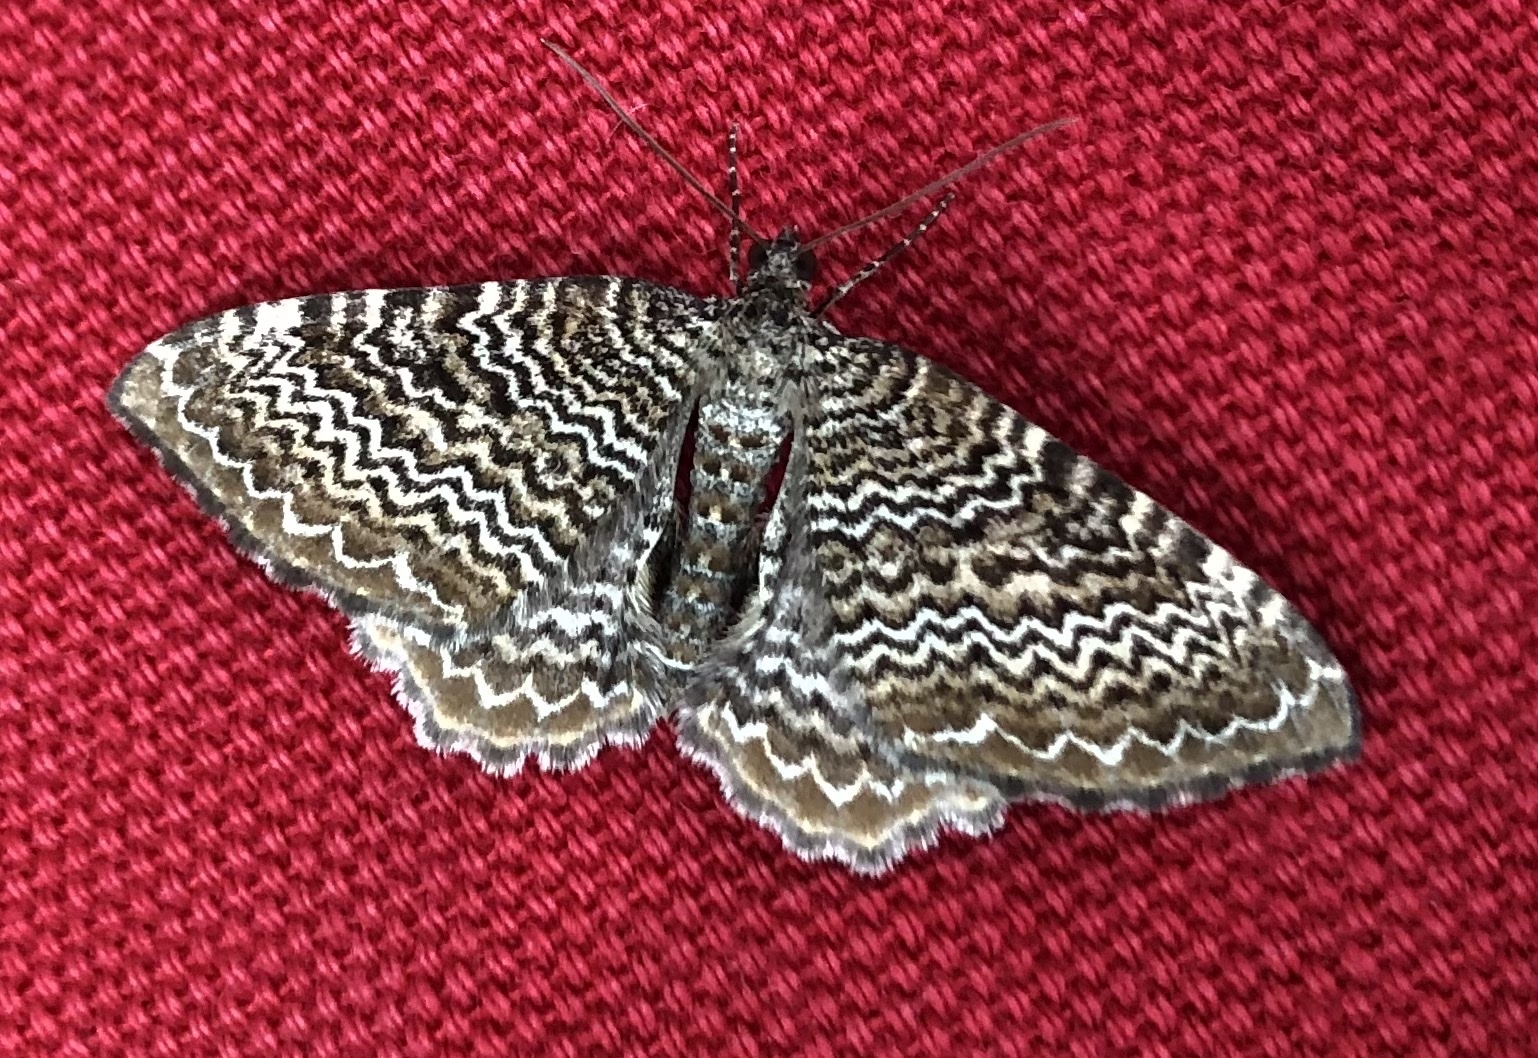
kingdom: Animalia
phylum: Arthropoda
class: Insecta
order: Lepidoptera
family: Geometridae
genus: Rheumaptera
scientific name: Rheumaptera undulata
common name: Scallop shell
